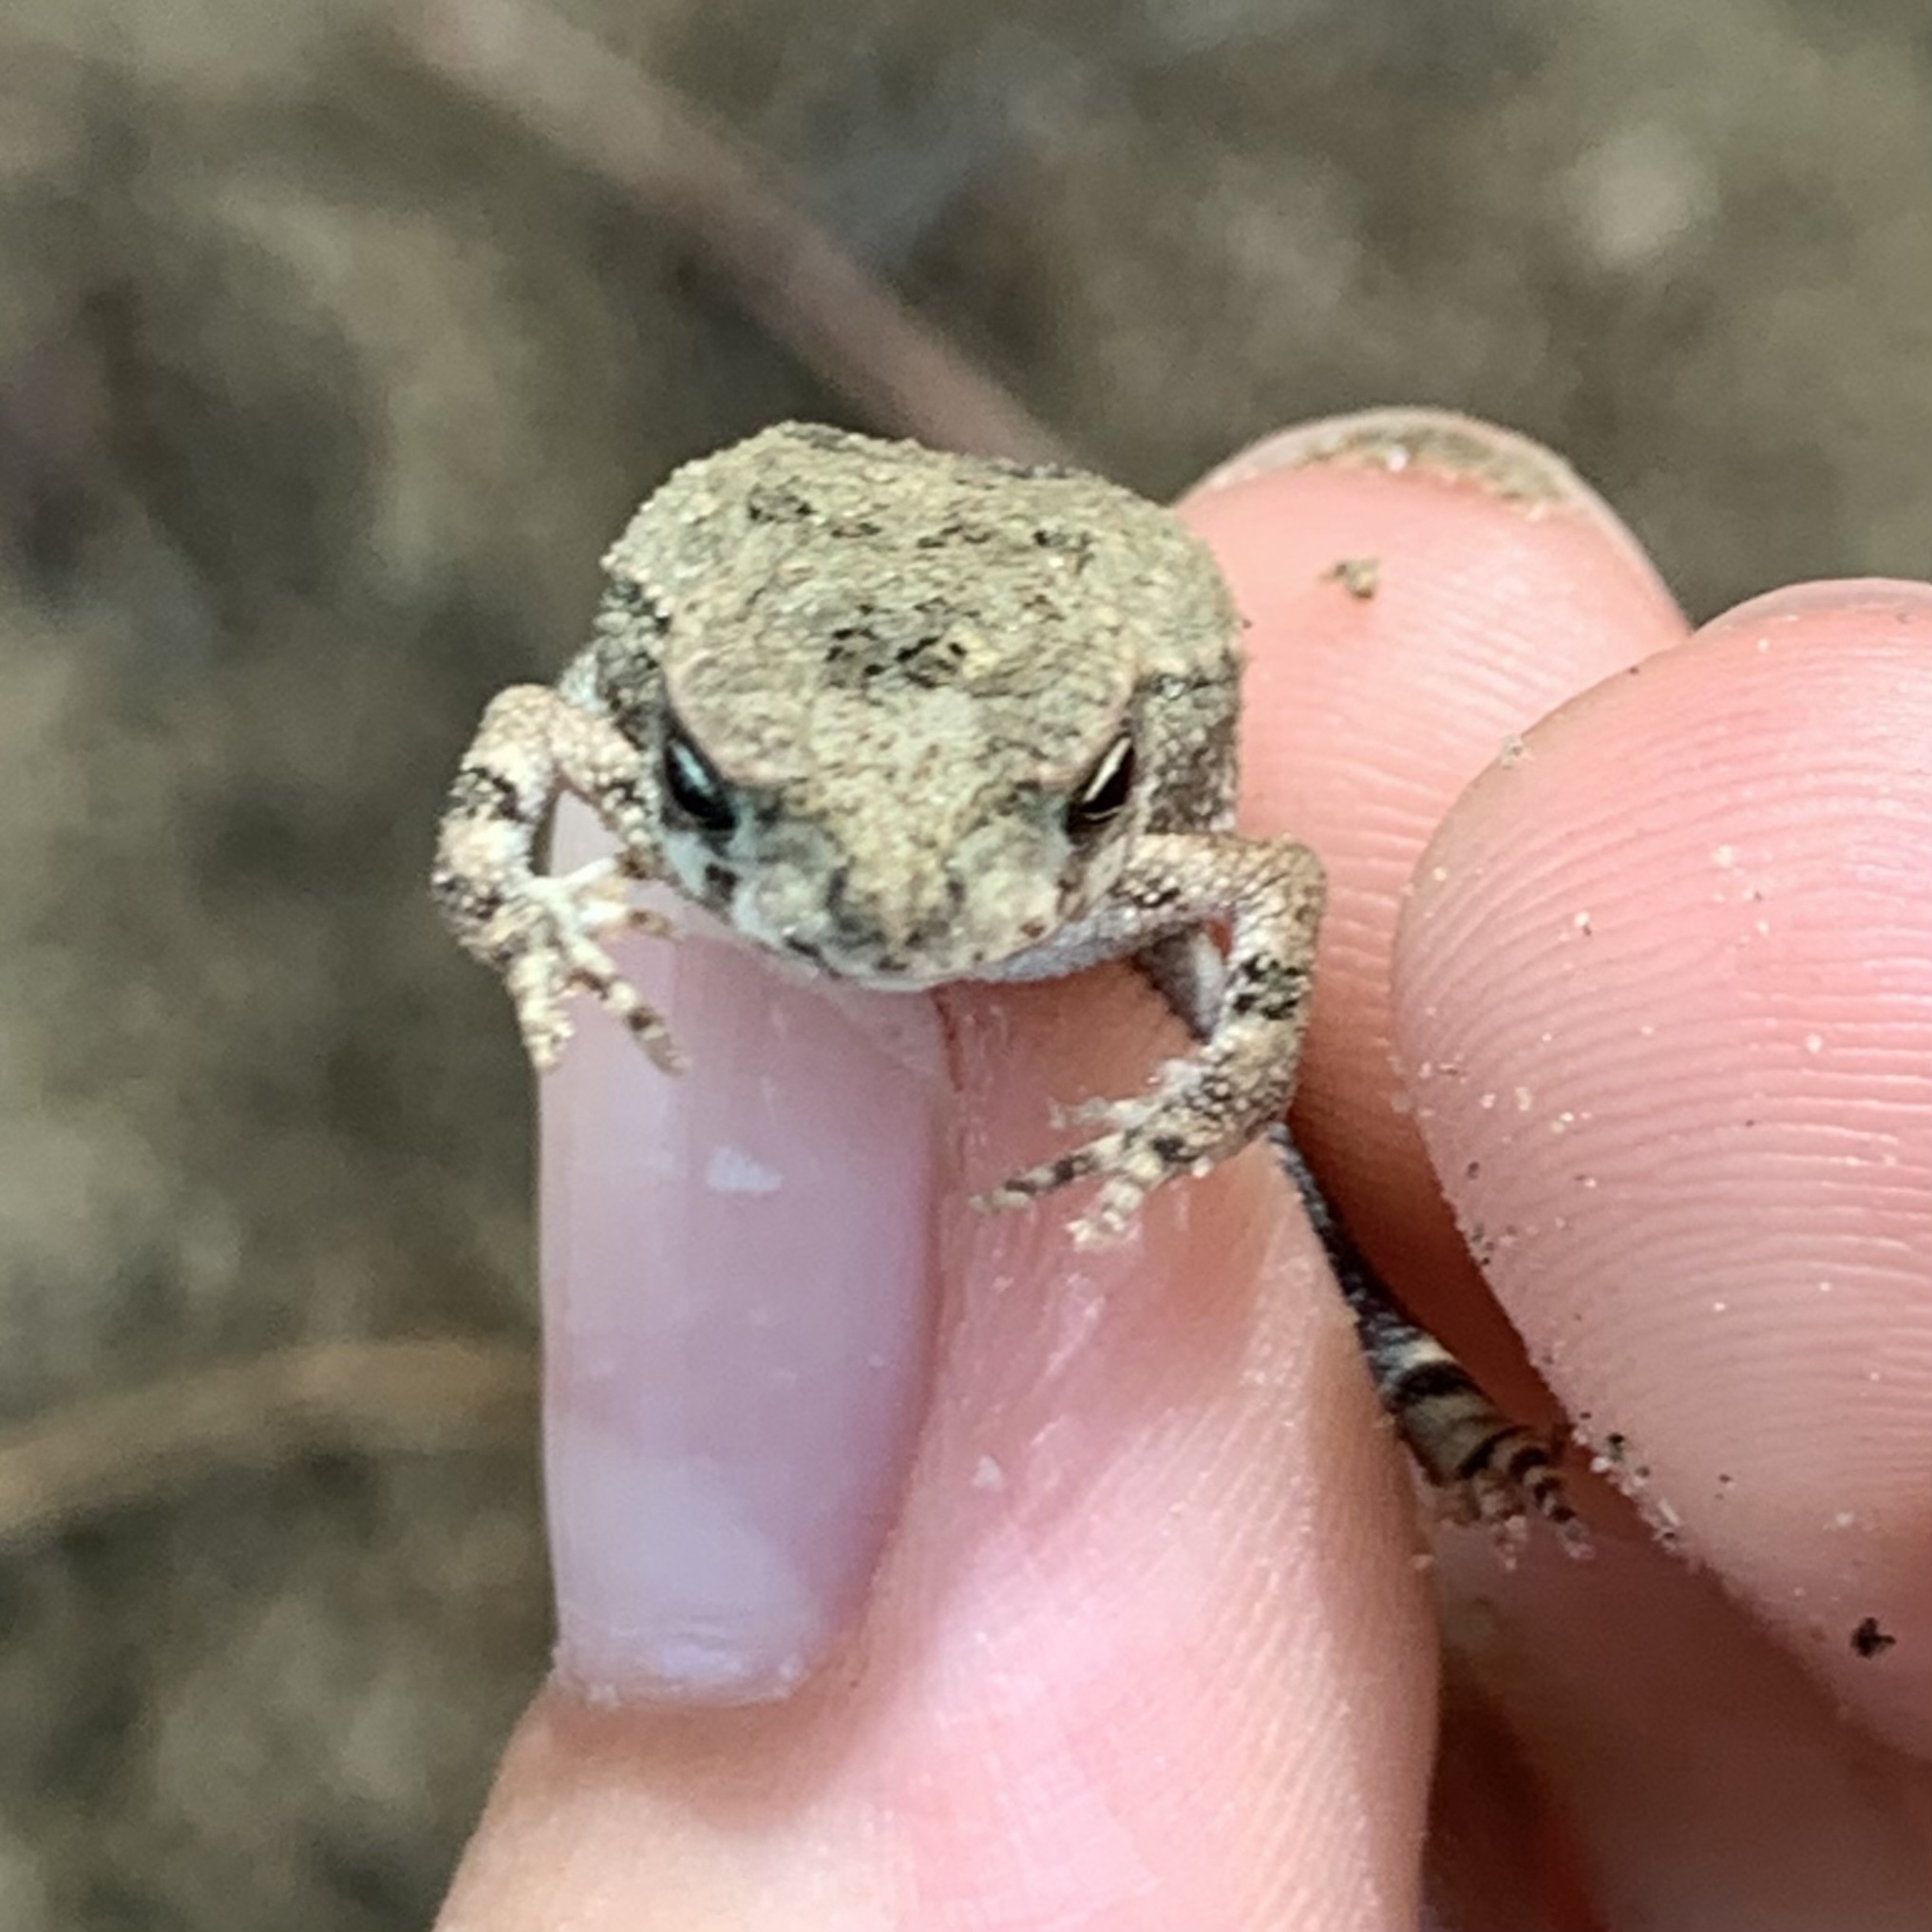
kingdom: Animalia
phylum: Chordata
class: Amphibia
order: Anura
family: Bufonidae
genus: Incilius
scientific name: Incilius nebulifer
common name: Gulf coast toad
